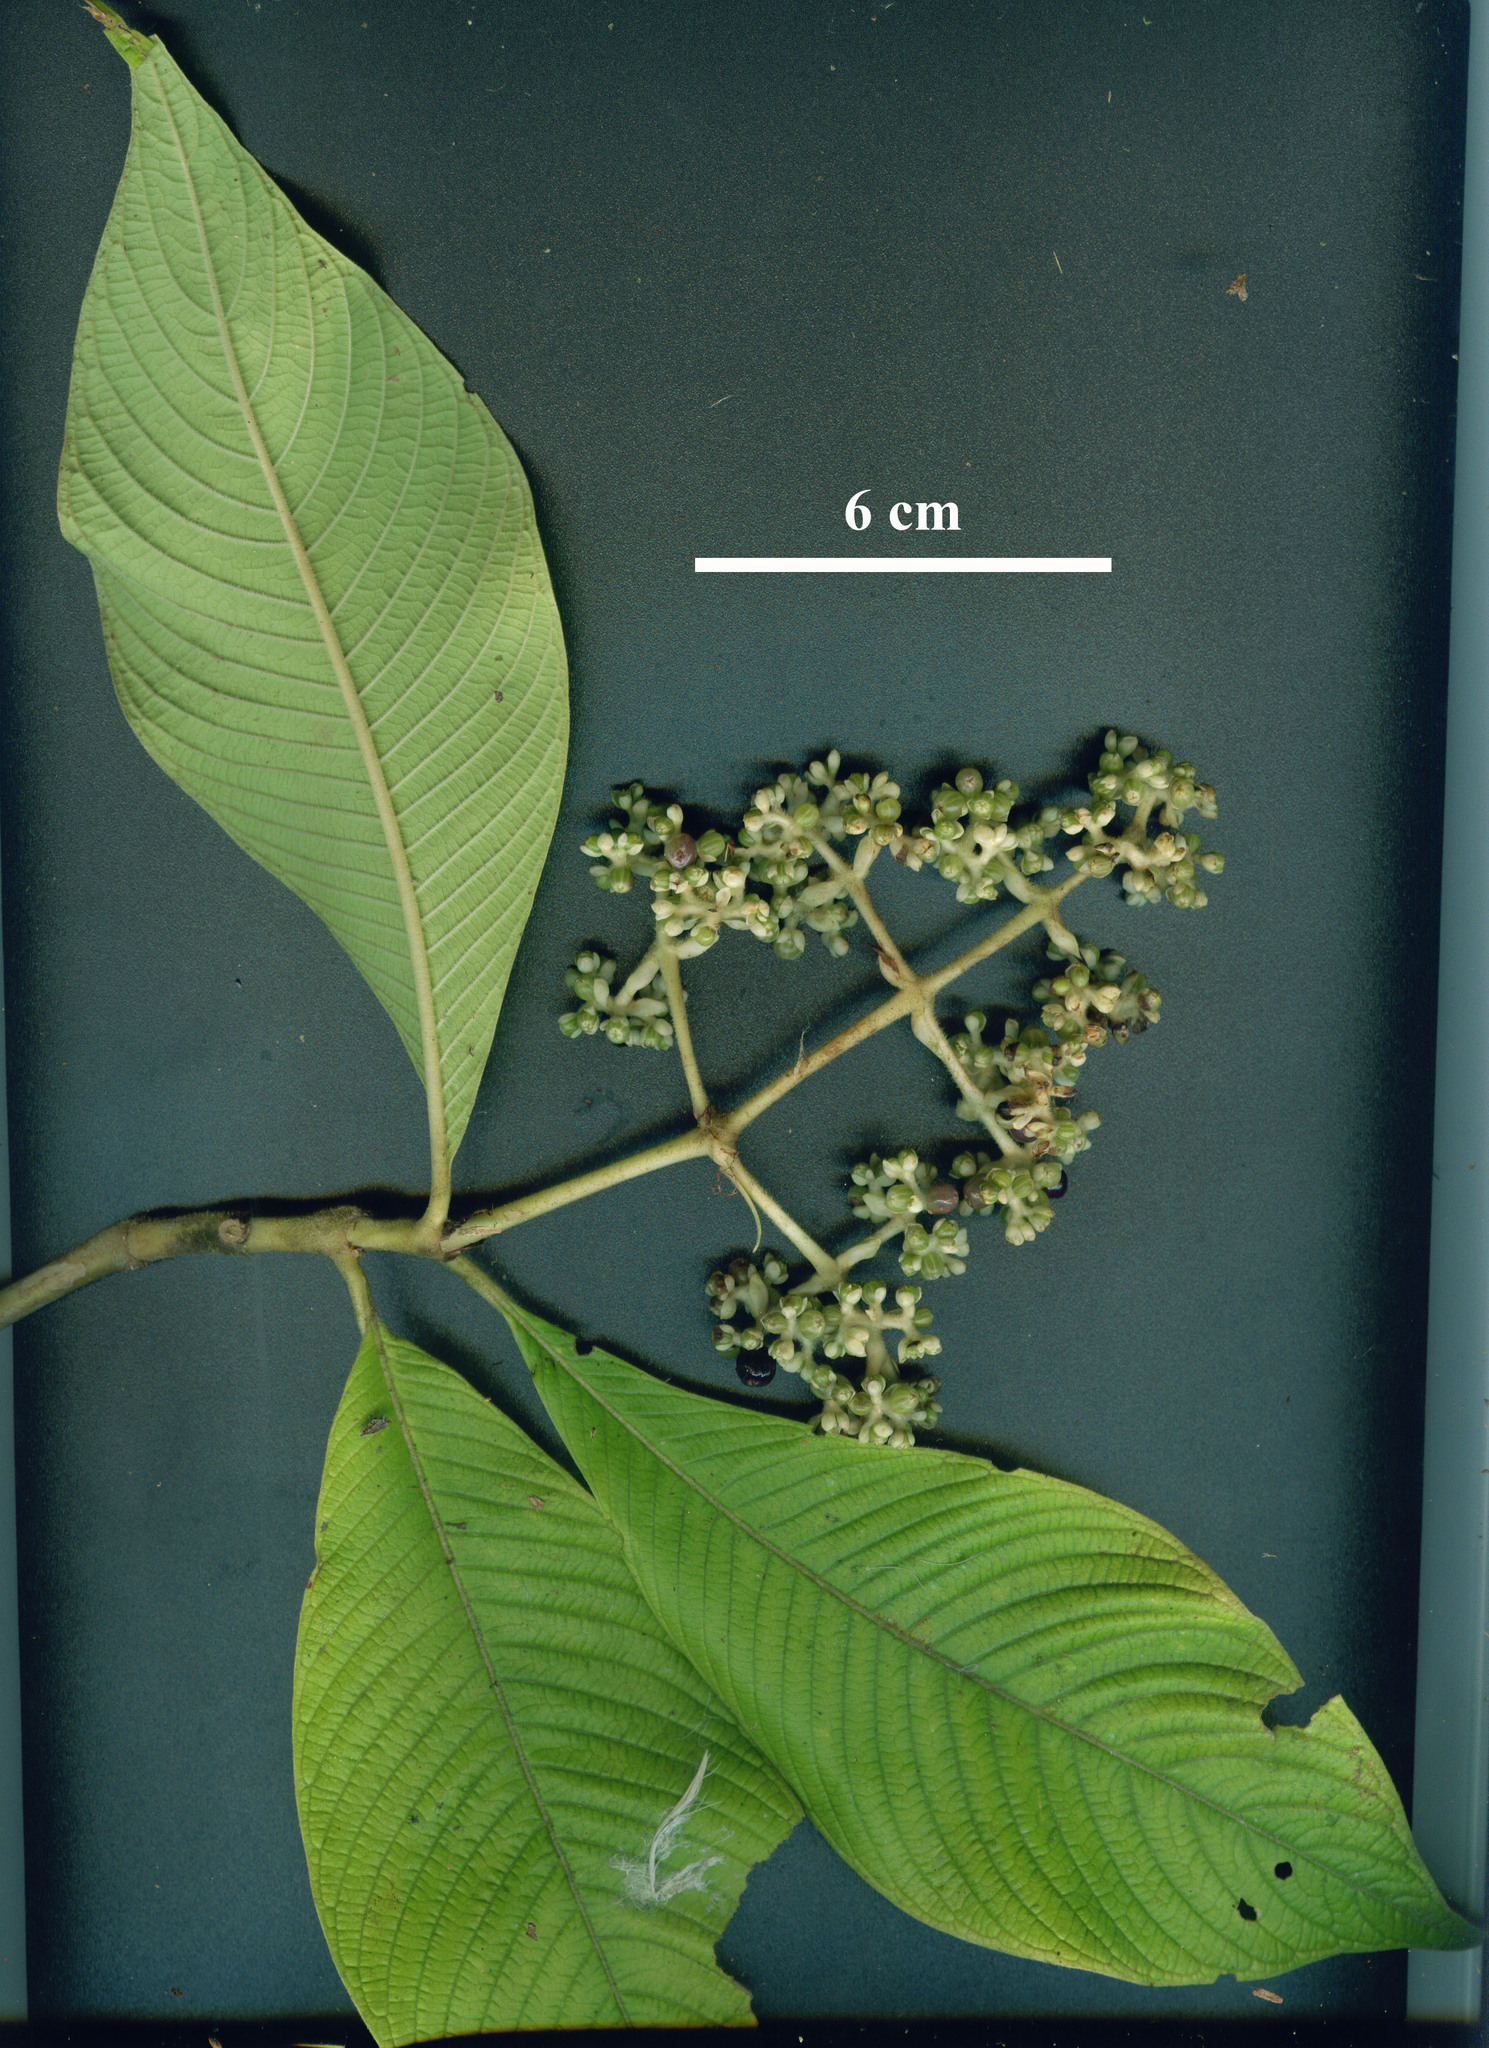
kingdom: Plantae
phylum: Tracheophyta
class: Magnoliopsida
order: Gentianales
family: Rubiaceae
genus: Palicourea
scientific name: Palicourea mortoniana
